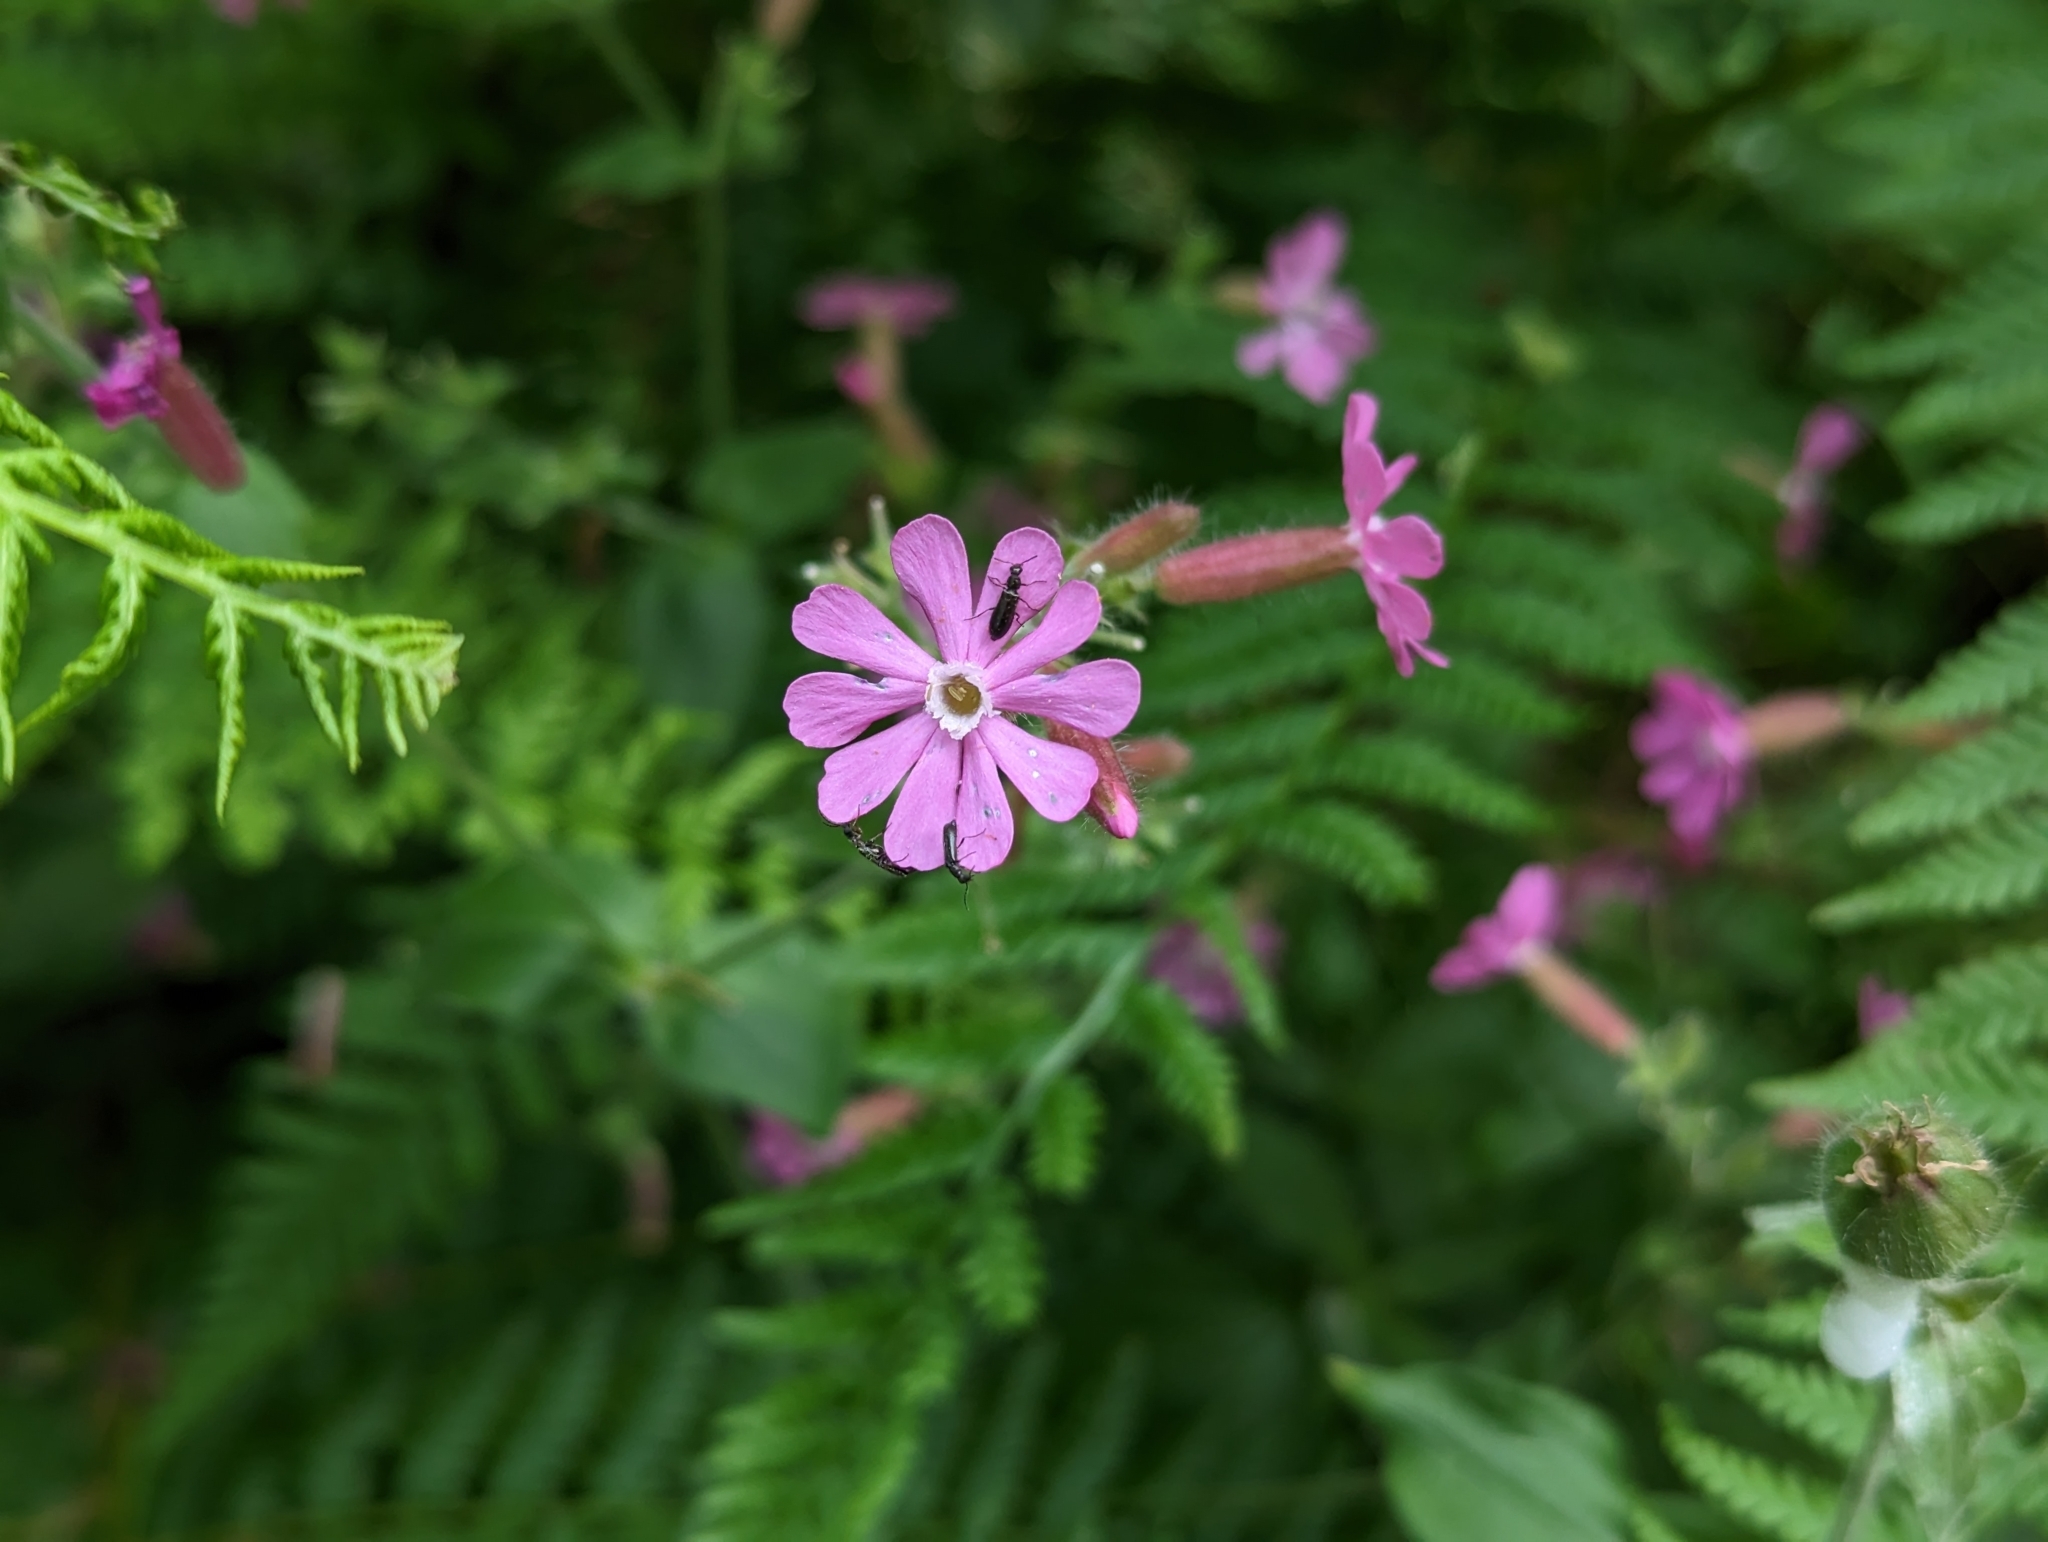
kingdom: Plantae
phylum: Tracheophyta
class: Magnoliopsida
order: Caryophyllales
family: Caryophyllaceae
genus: Silene
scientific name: Silene dioica
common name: Red campion
